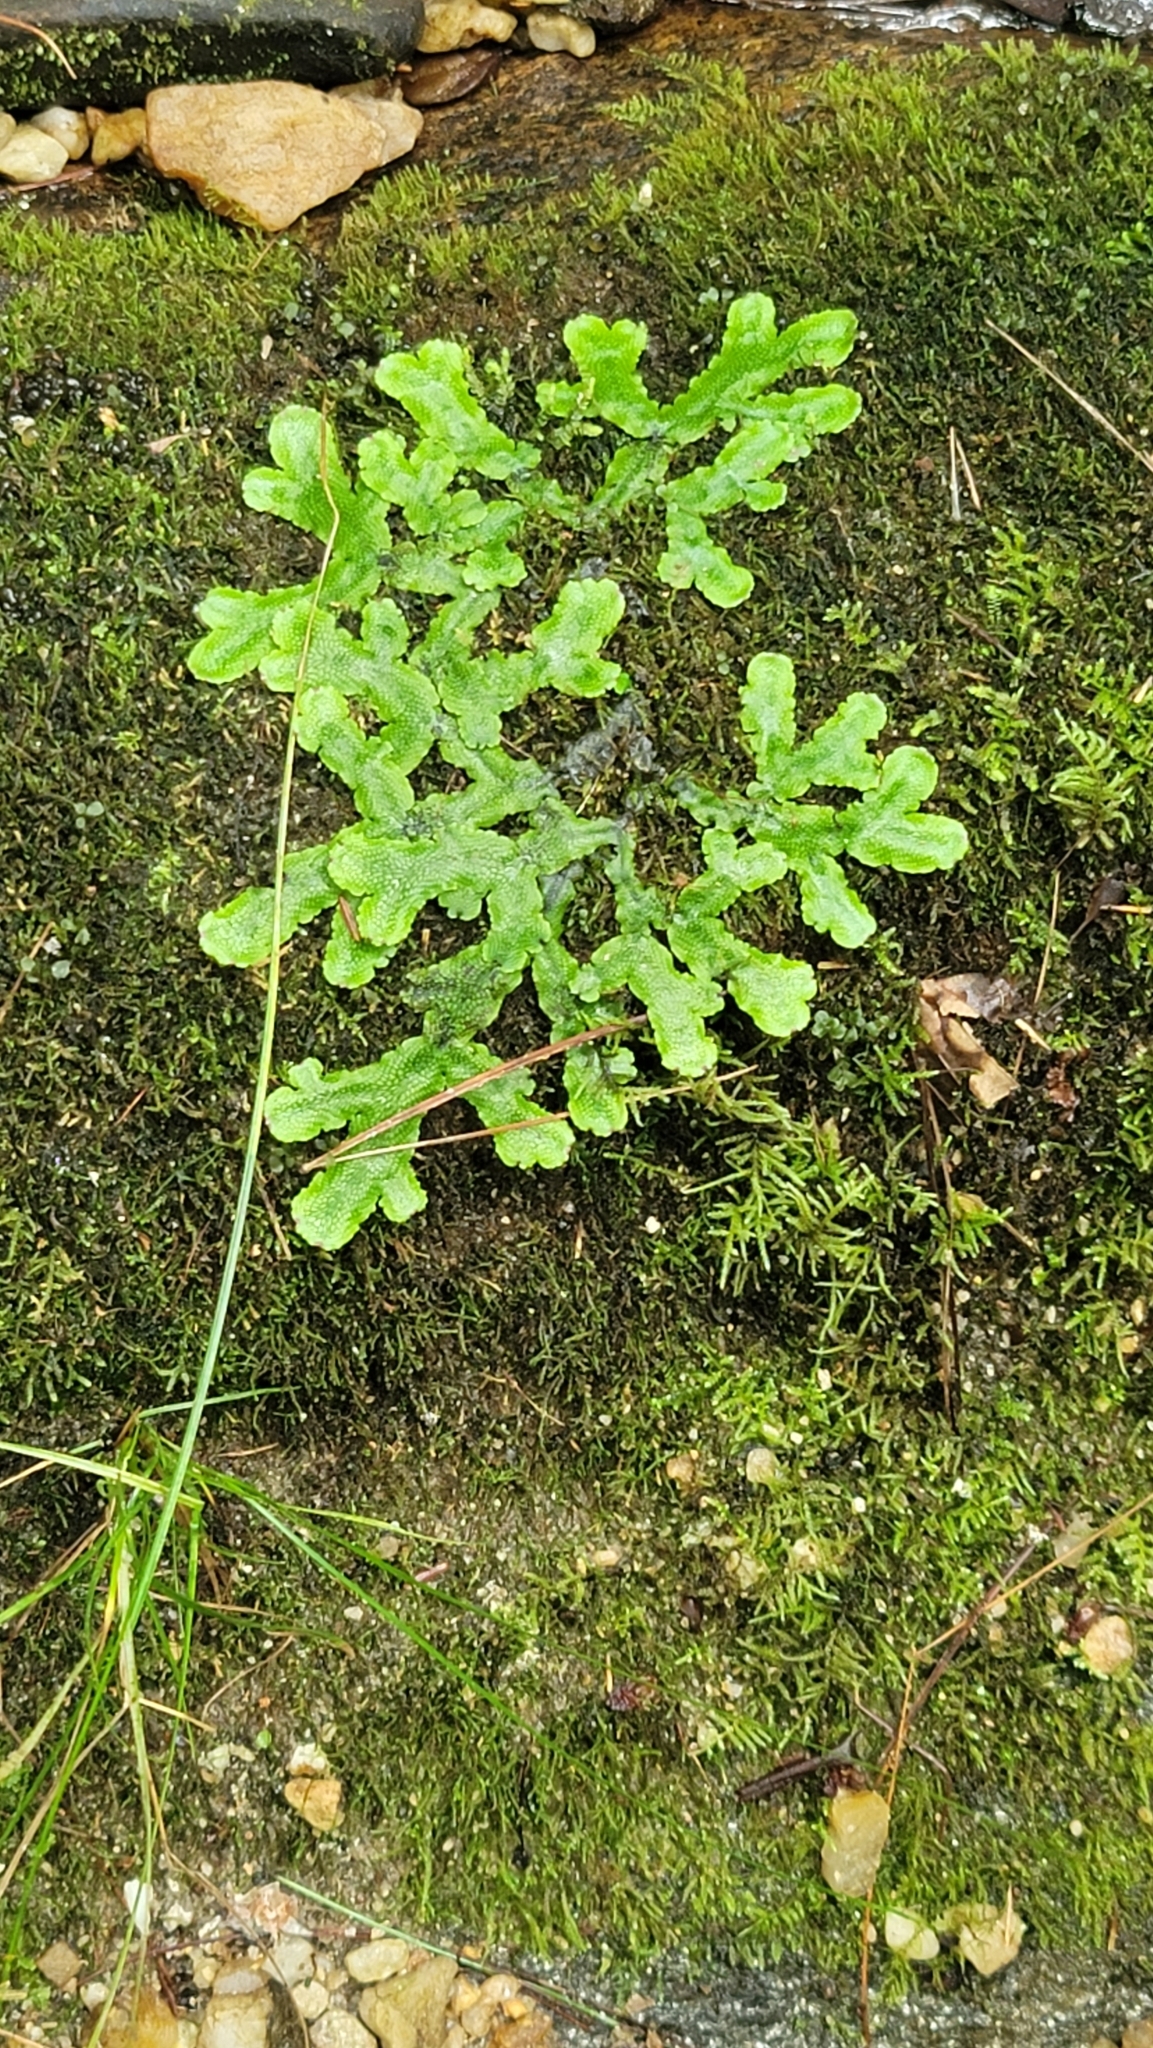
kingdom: Plantae
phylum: Marchantiophyta
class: Marchantiopsida
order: Marchantiales
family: Conocephalaceae
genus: Conocephalum
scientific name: Conocephalum salebrosum
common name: Cat-tongue liverwort
